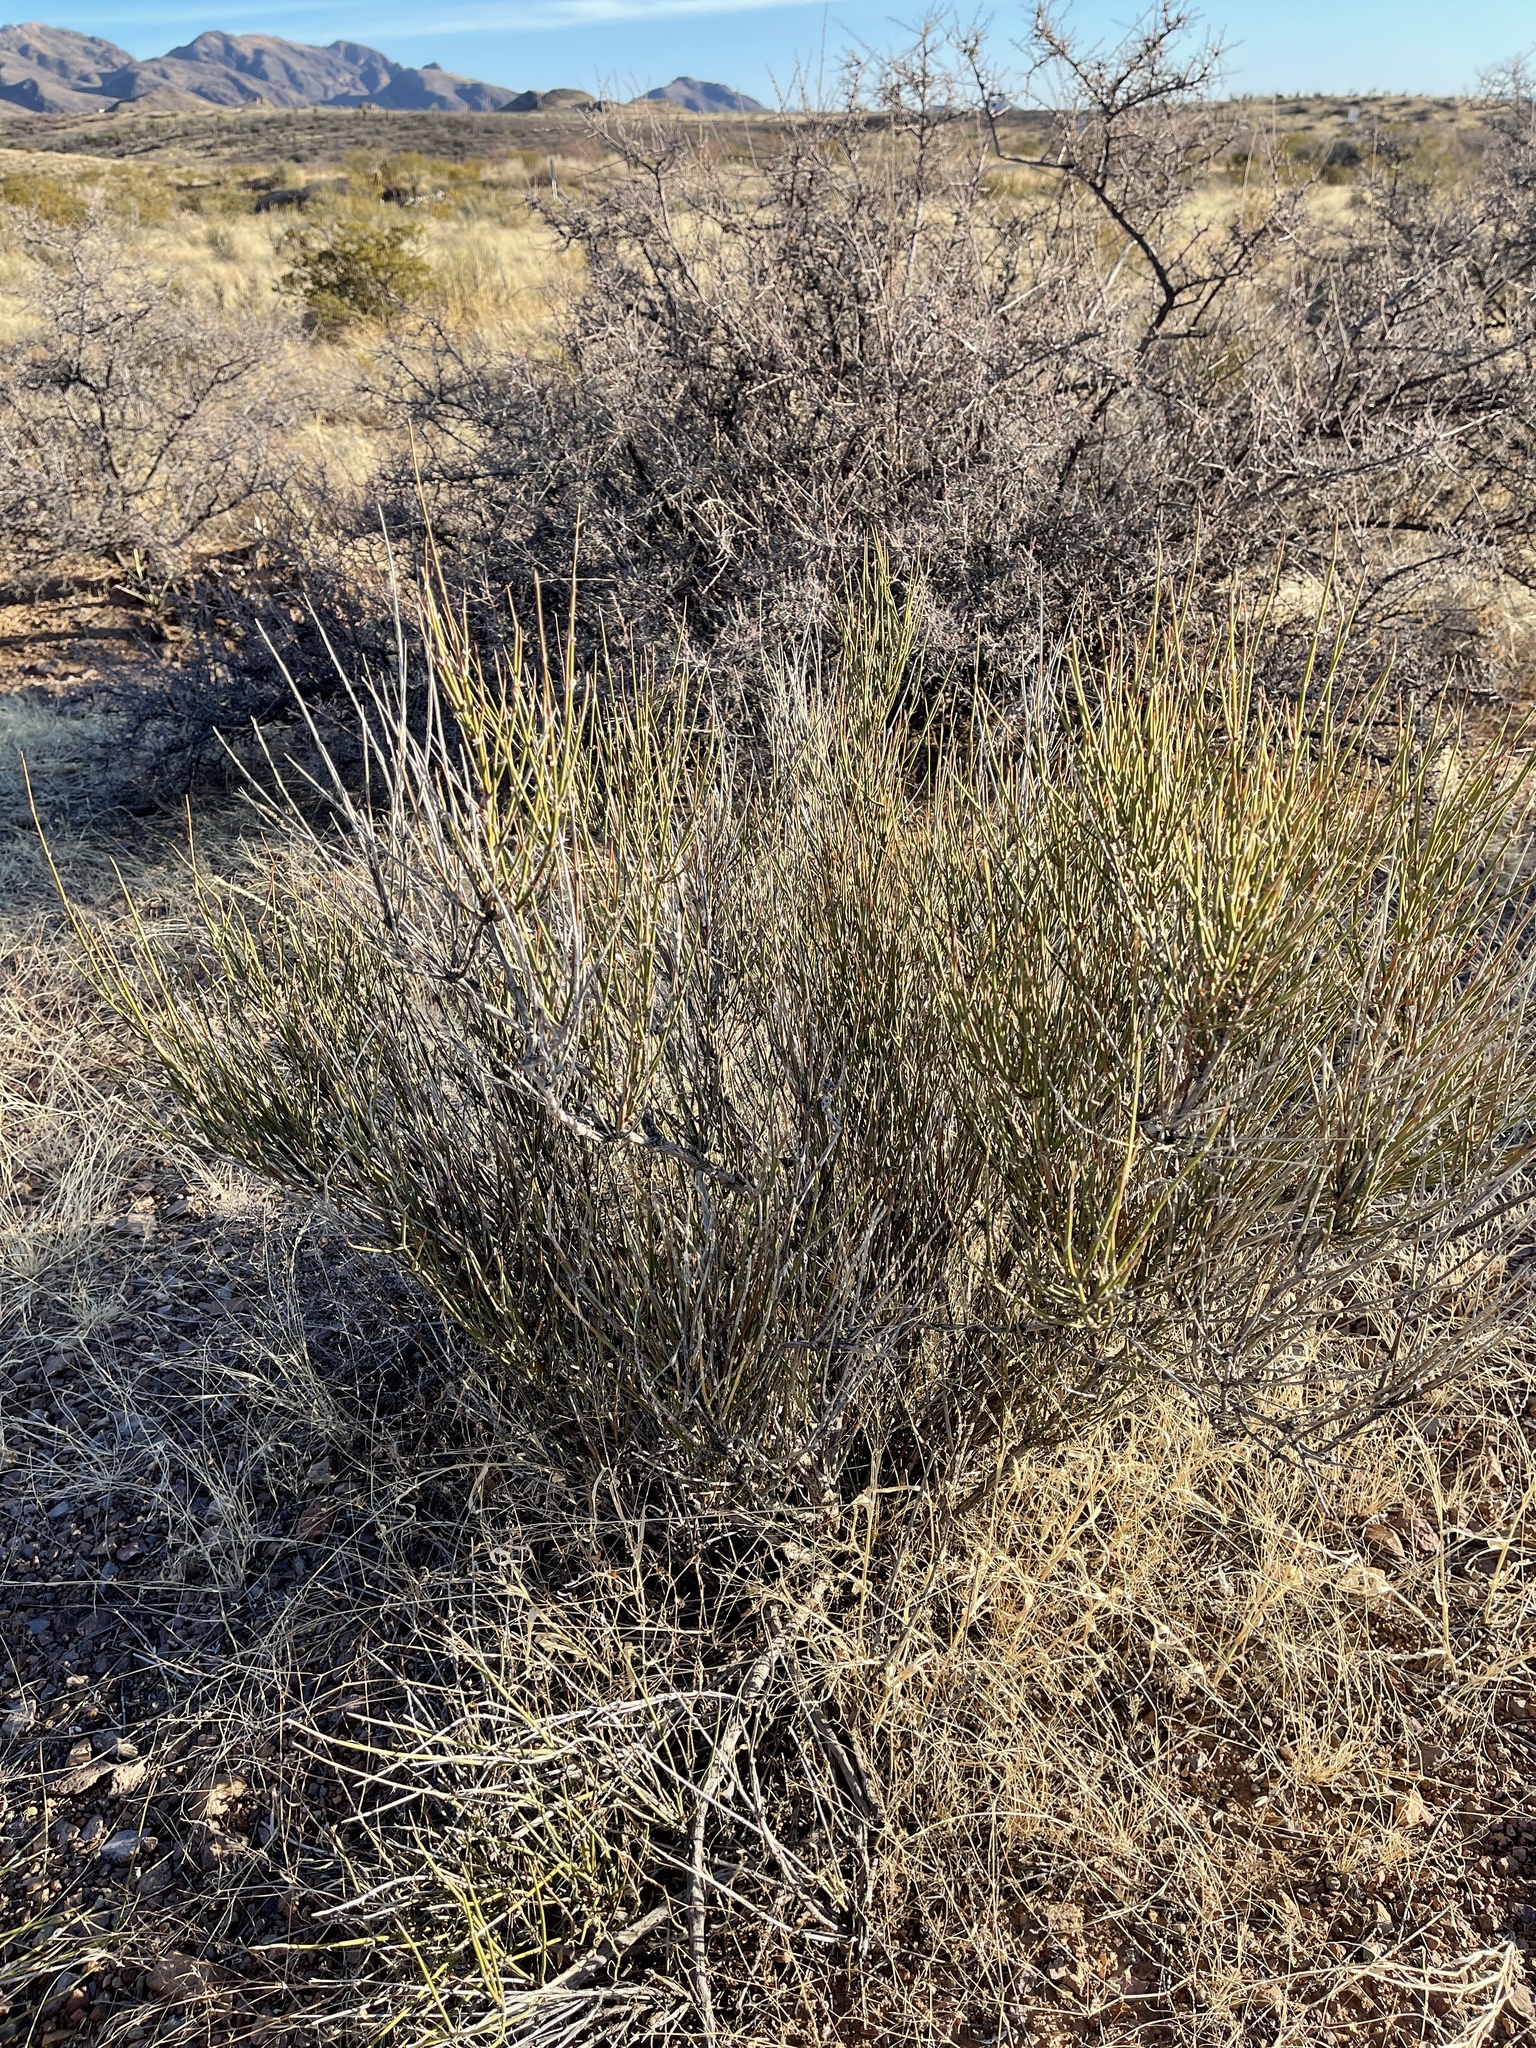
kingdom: Plantae
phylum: Tracheophyta
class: Gnetopsida
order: Ephedrales
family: Ephedraceae
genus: Ephedra
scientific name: Ephedra trifurca
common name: Mexican-tea
